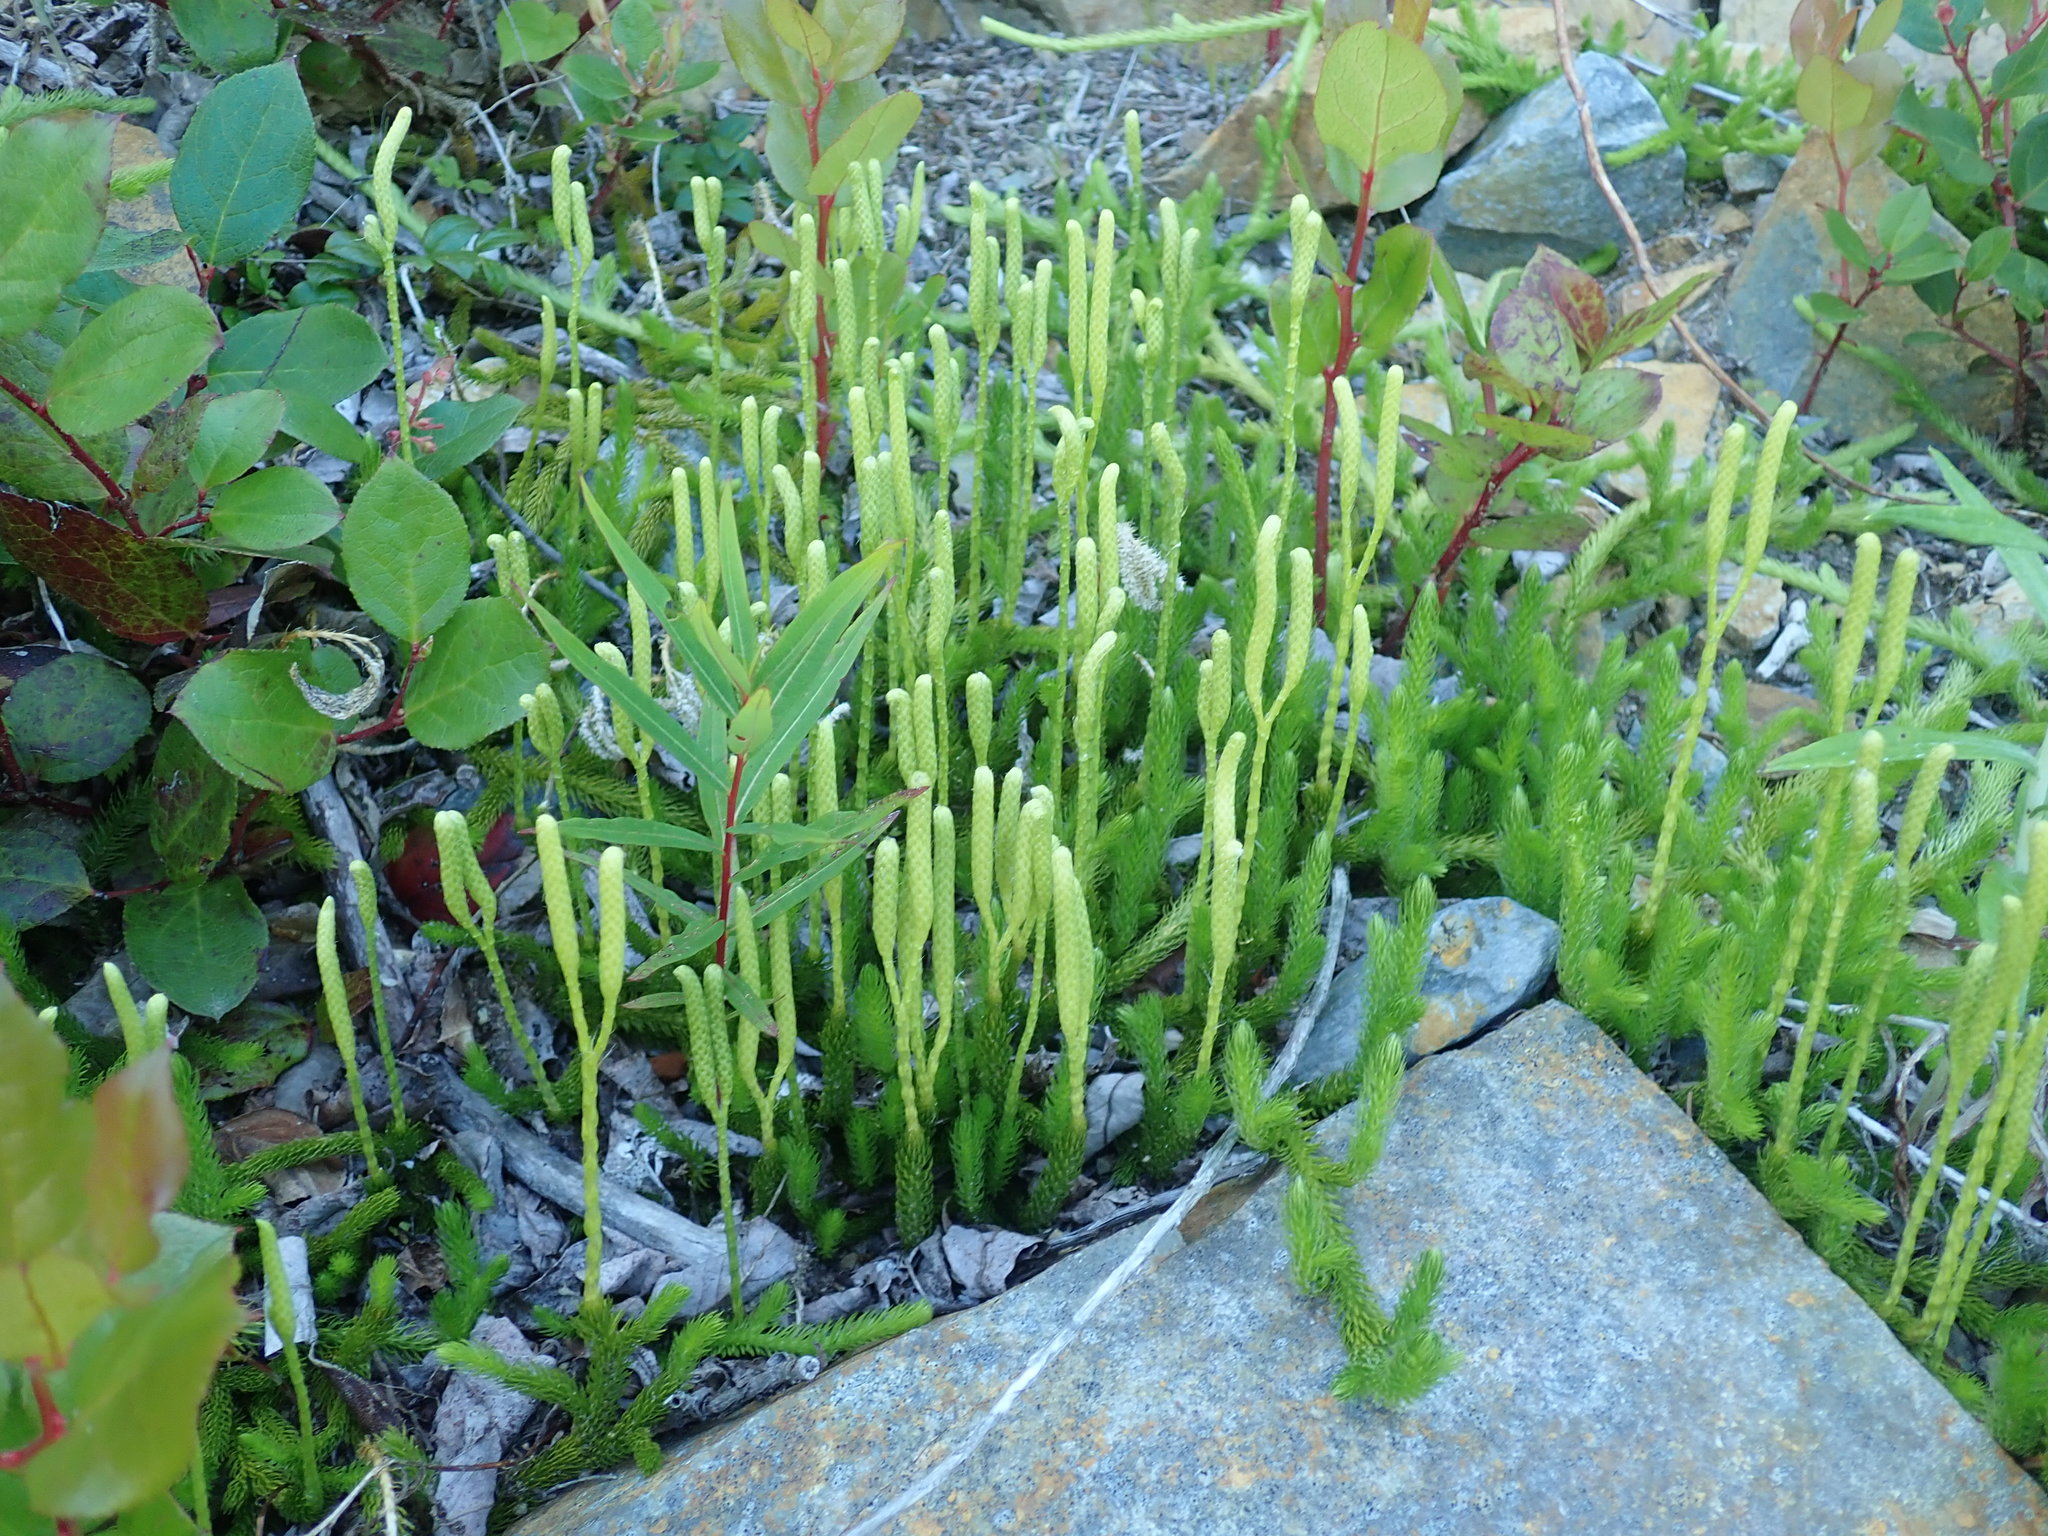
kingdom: Plantae
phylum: Tracheophyta
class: Lycopodiopsida
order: Lycopodiales
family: Lycopodiaceae
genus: Lycopodium
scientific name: Lycopodium clavatum
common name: Stag's-horn clubmoss
